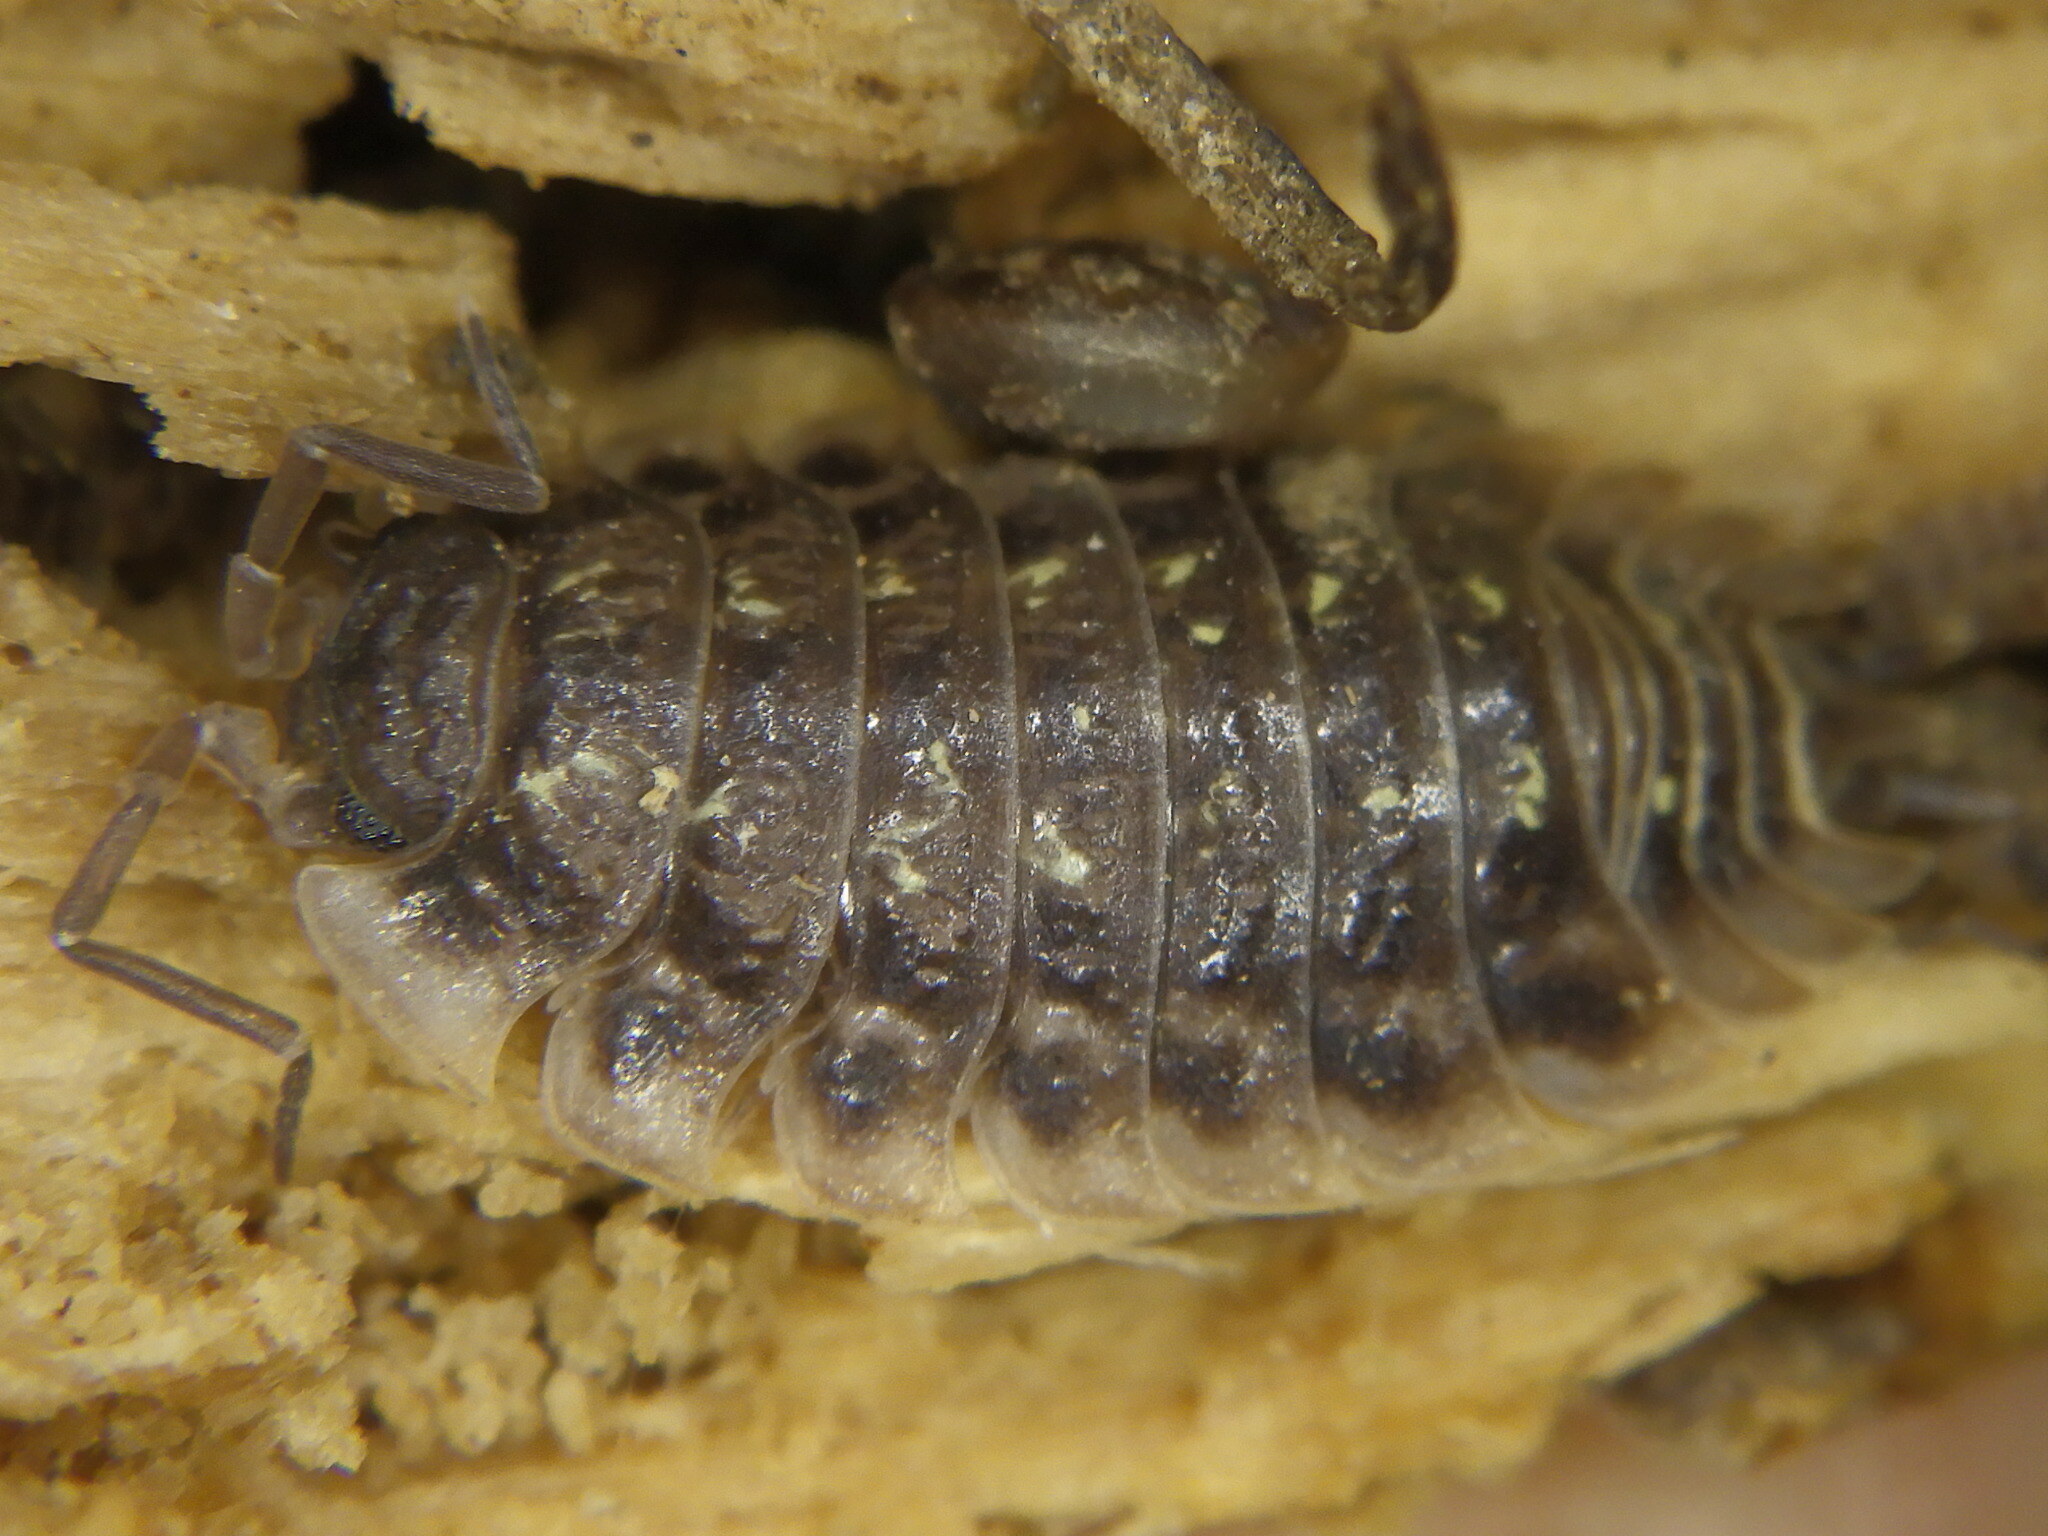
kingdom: Animalia
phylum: Arthropoda
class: Malacostraca
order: Isopoda
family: Oniscidae
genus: Oniscus
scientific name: Oniscus asellus
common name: Common shiny woodlouse
